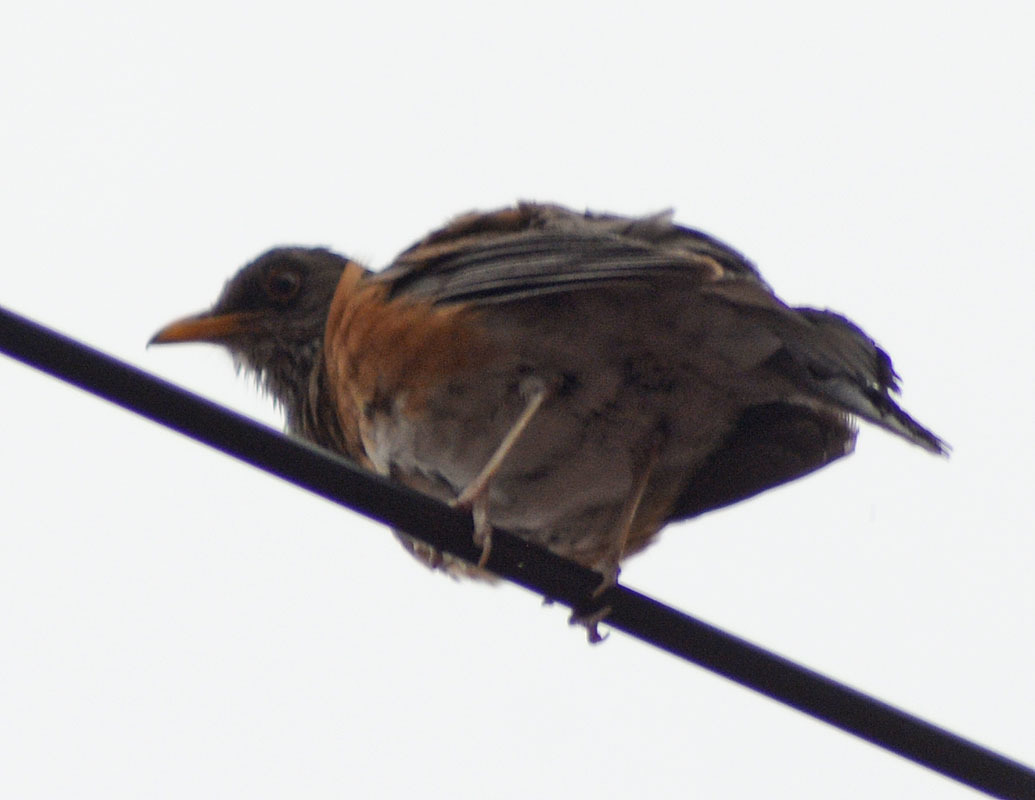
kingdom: Animalia
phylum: Chordata
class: Aves
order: Passeriformes
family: Turdidae
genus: Turdus
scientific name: Turdus rufopalliatus
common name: Rufous-backed robin
